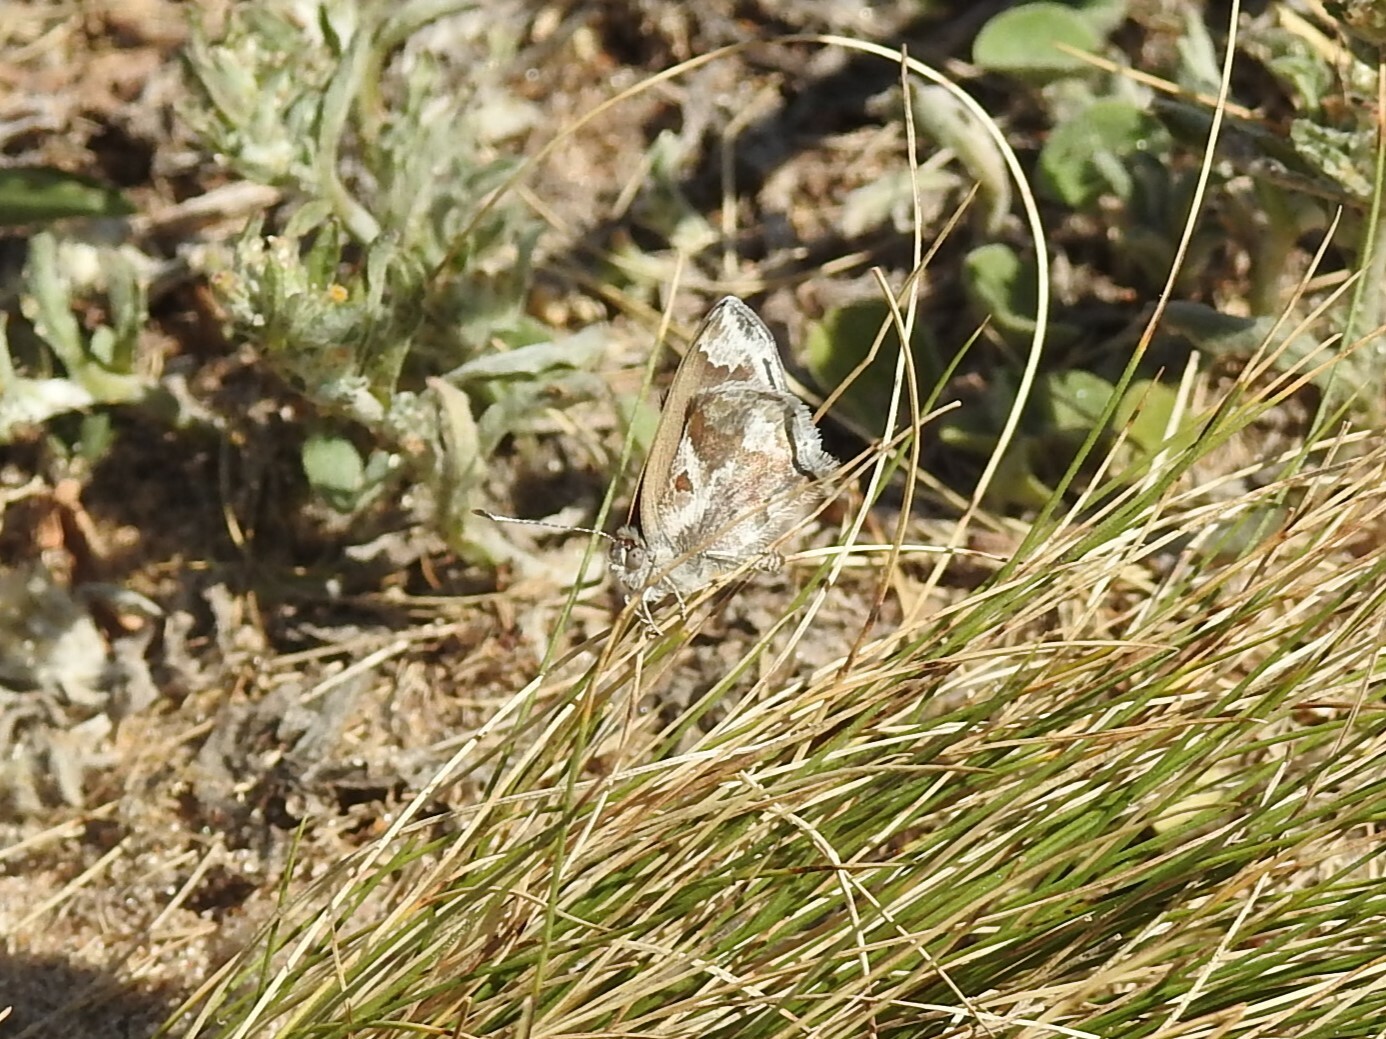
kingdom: Animalia
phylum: Arthropoda
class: Insecta
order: Lepidoptera
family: Lycaenidae
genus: Strymon
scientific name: Strymon bazochii
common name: Lantana scrub-hairstreak
